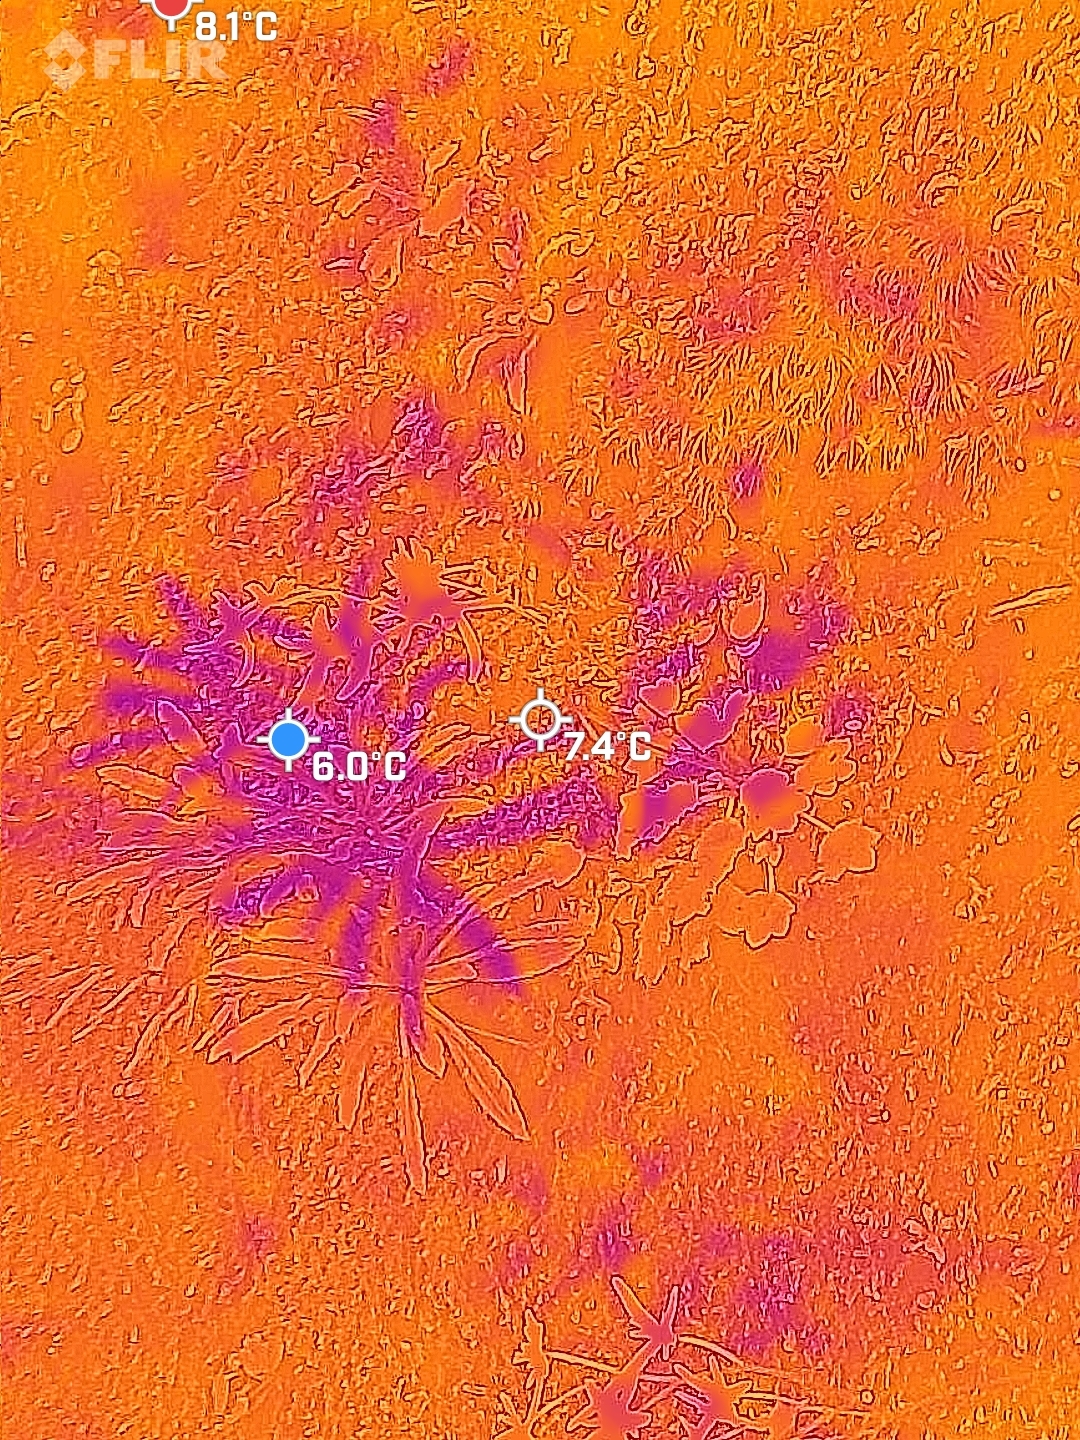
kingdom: Plantae
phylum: Tracheophyta
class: Magnoliopsida
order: Saxifragales
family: Saxifragaceae
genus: Saxifraga
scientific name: Saxifraga fortunei
